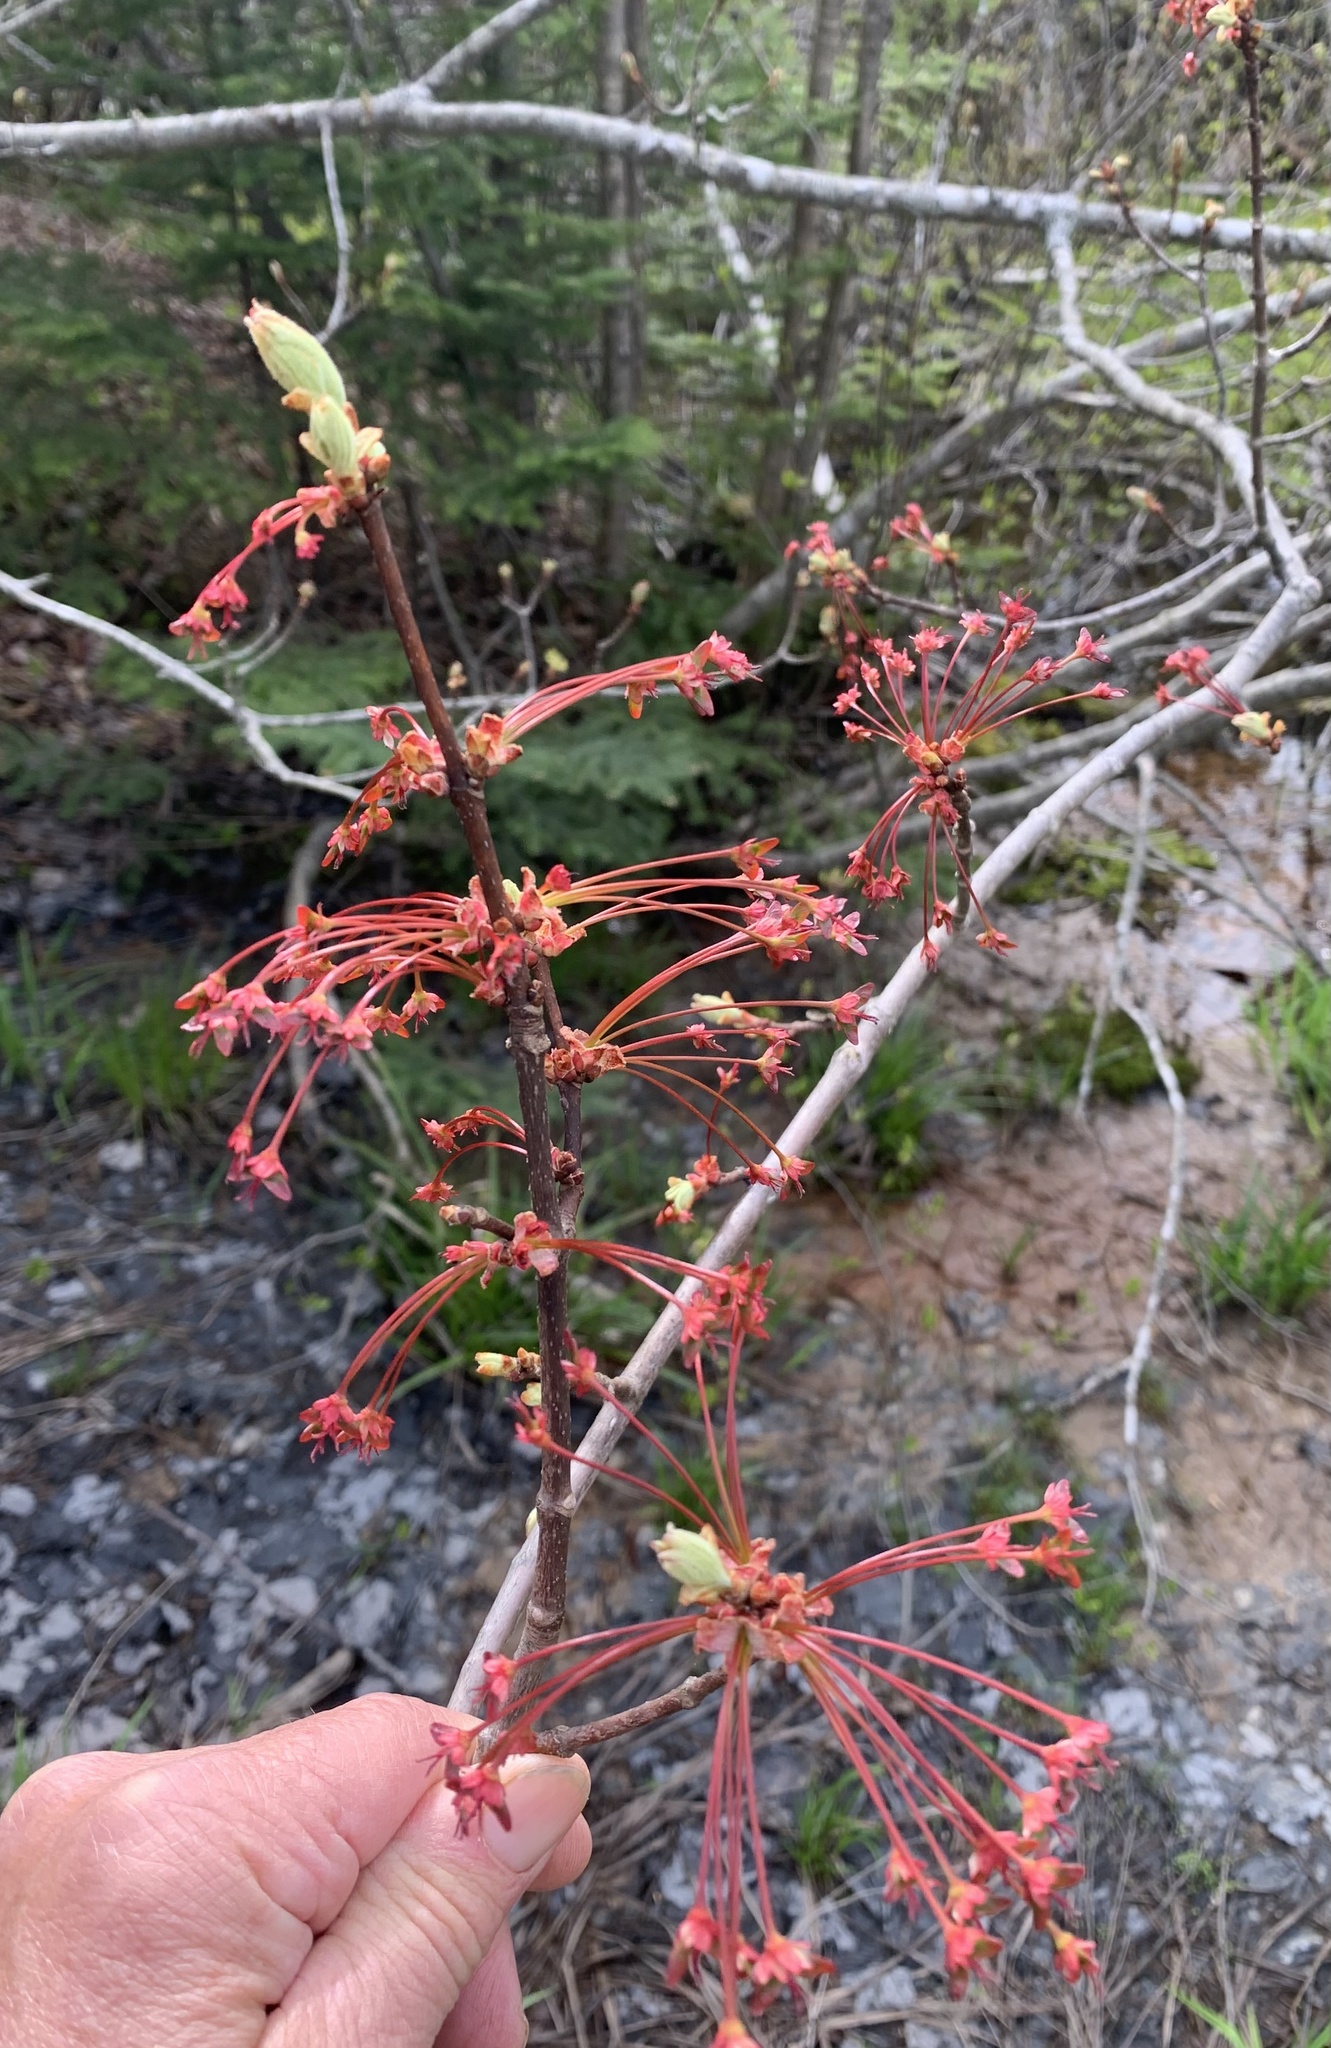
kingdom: Plantae
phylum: Tracheophyta
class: Magnoliopsida
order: Sapindales
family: Sapindaceae
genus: Acer
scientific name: Acer rubrum
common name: Red maple
